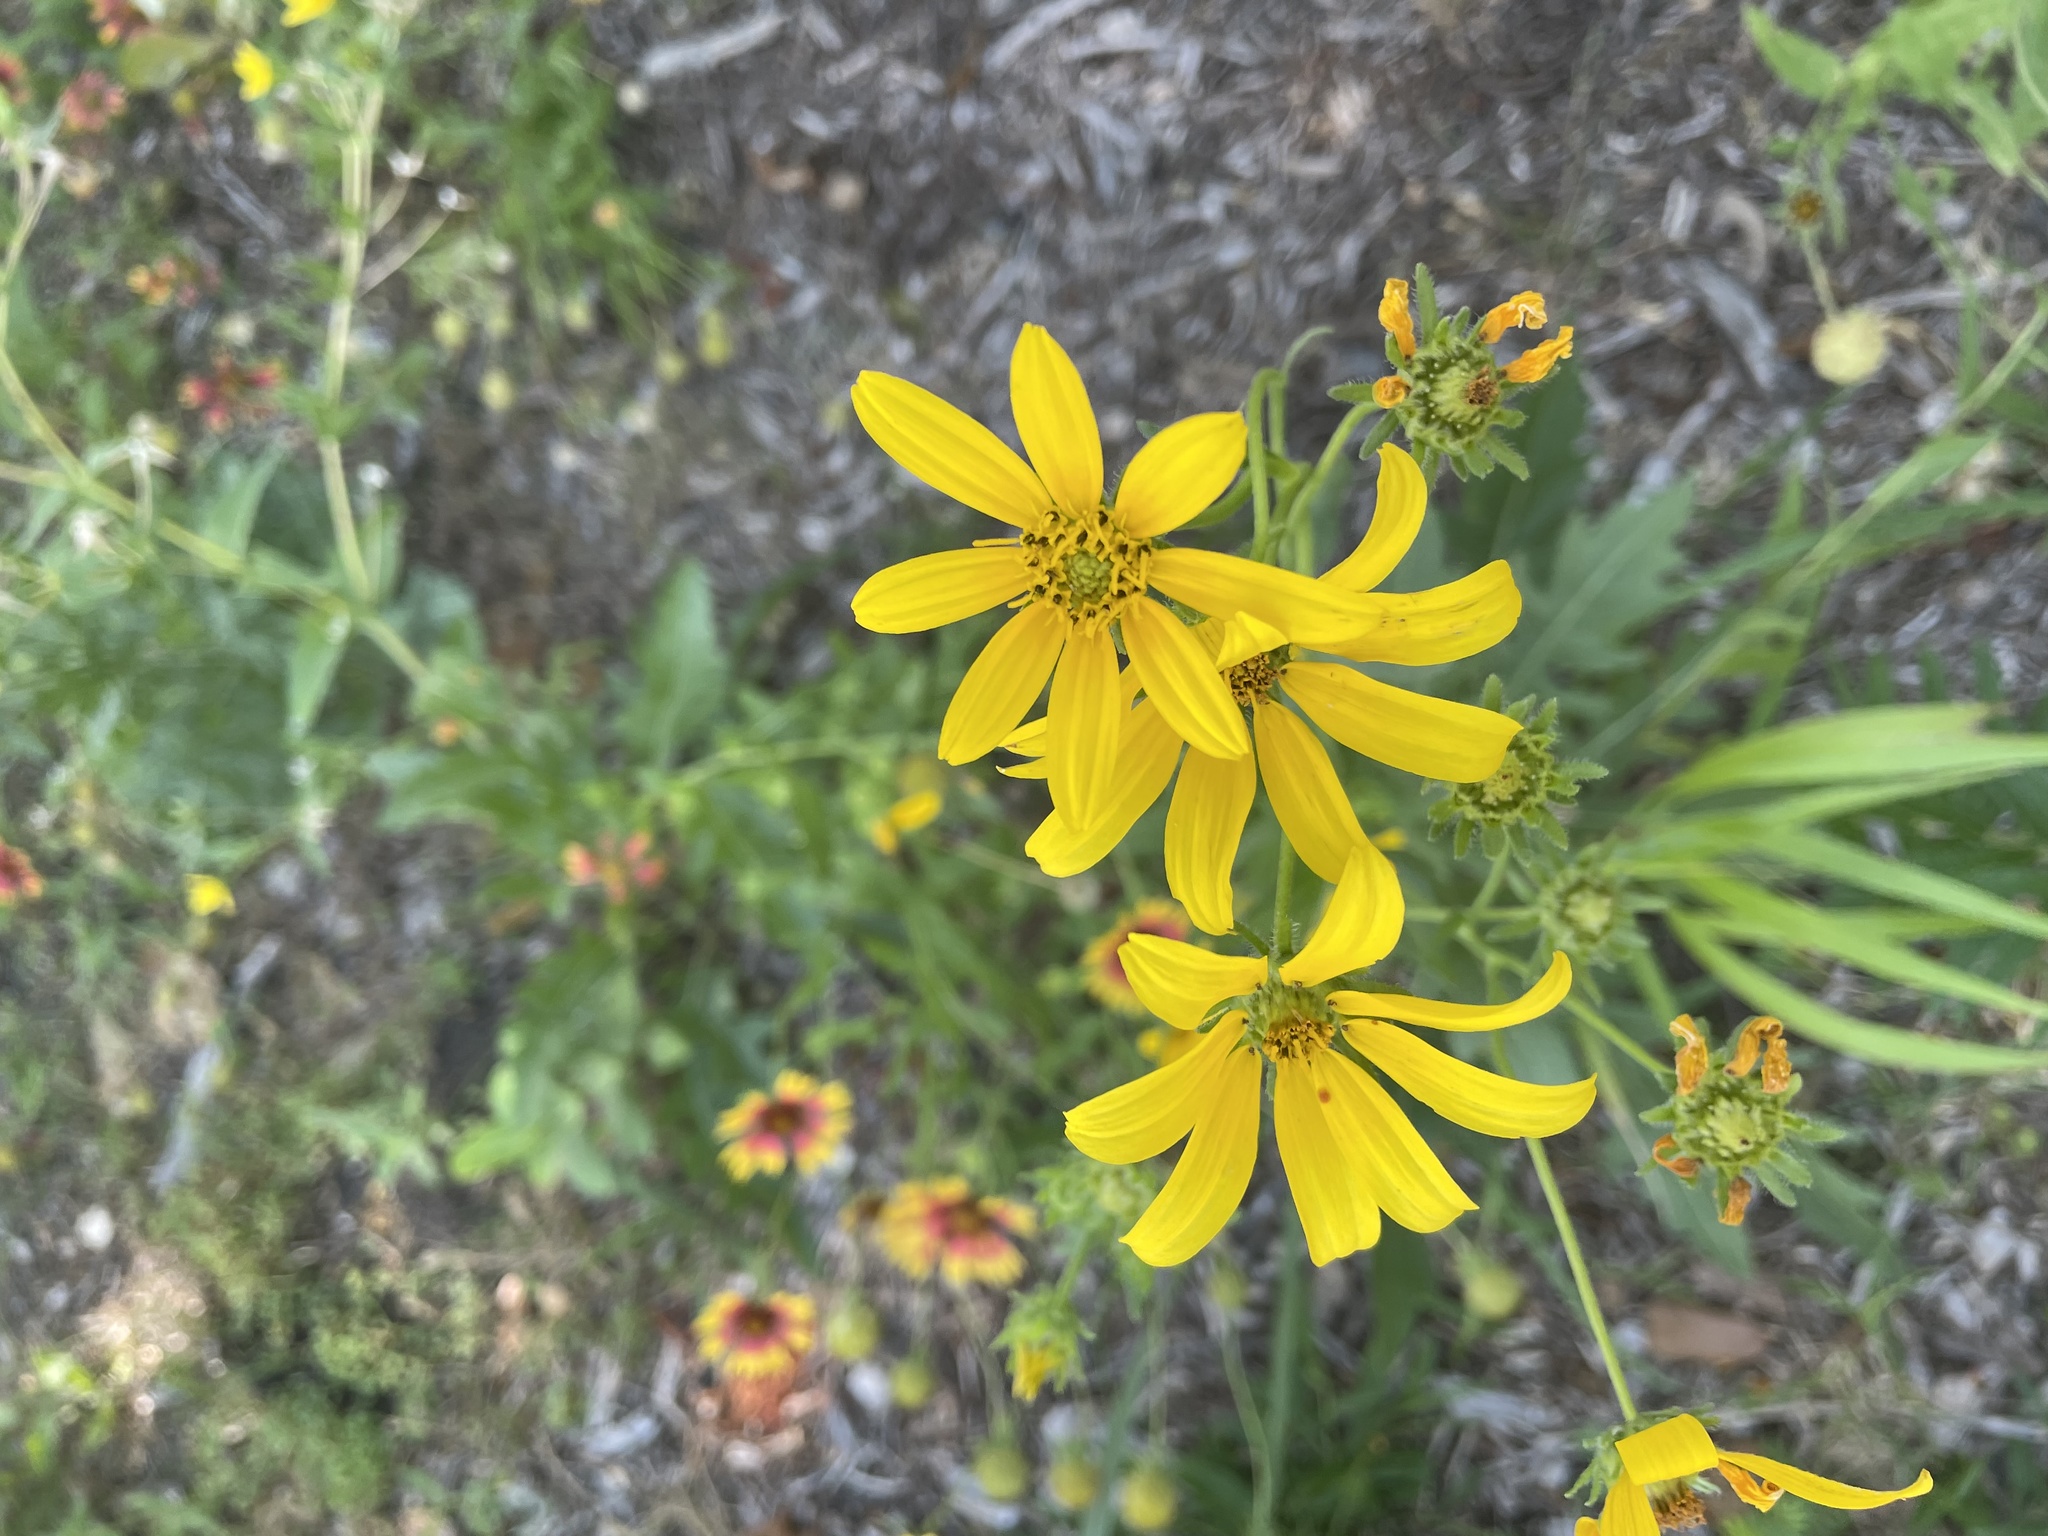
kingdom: Plantae
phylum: Tracheophyta
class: Magnoliopsida
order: Asterales
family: Asteraceae
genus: Engelmannia
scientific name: Engelmannia peristenia
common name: Engelmann's daisy
